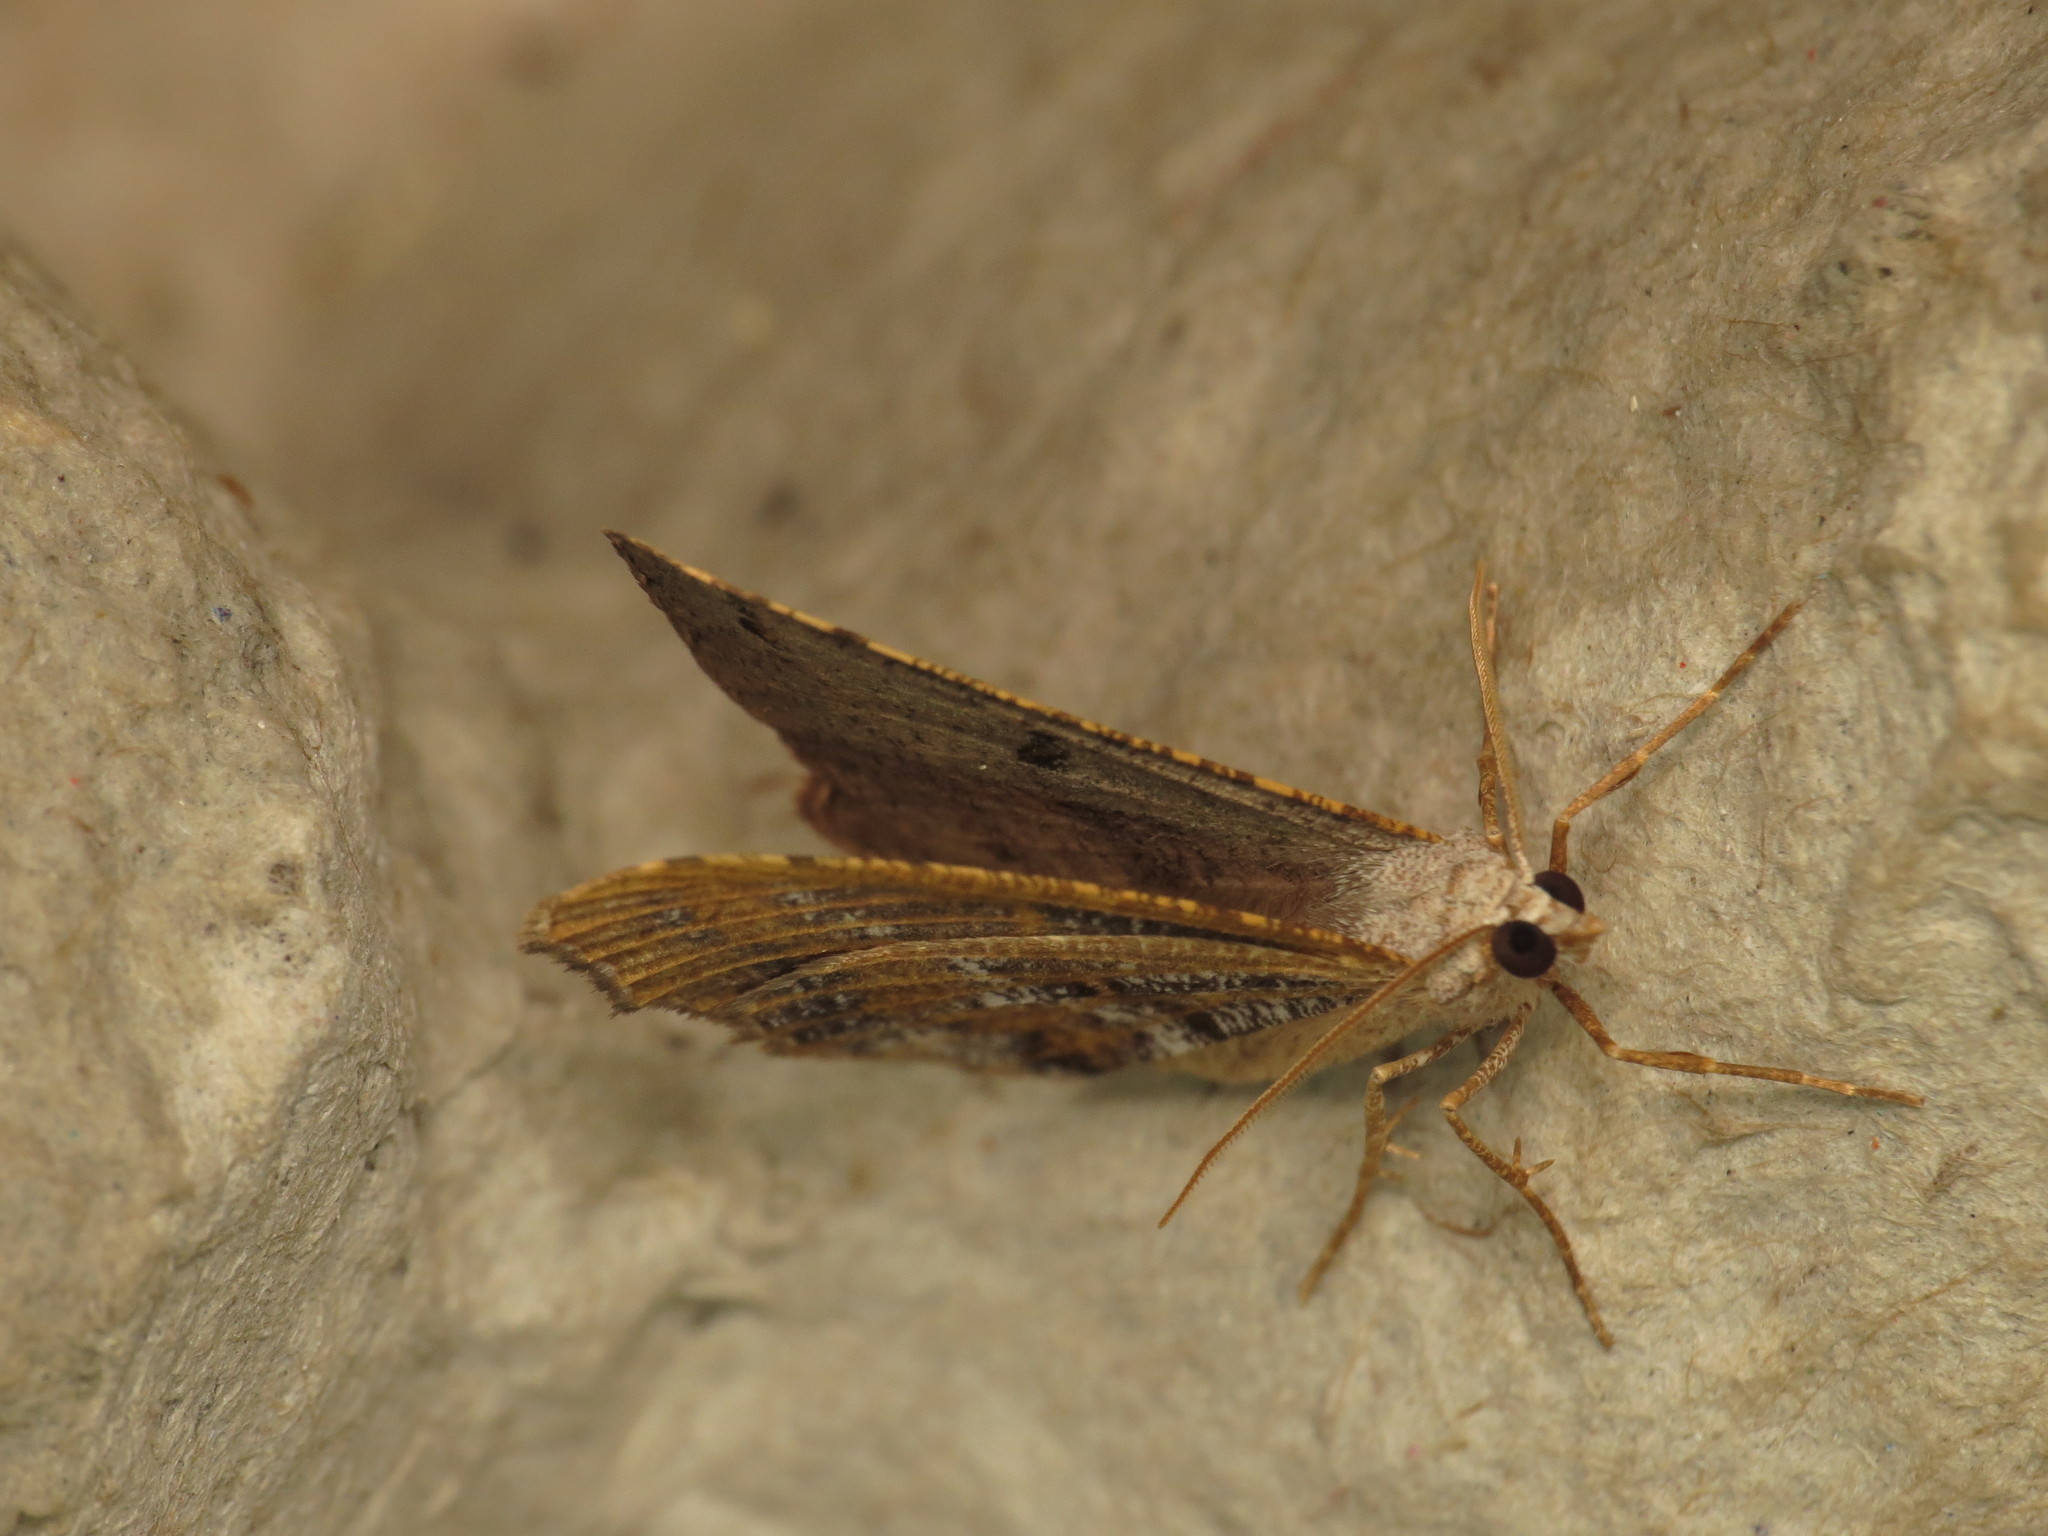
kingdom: Animalia
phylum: Arthropoda
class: Insecta
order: Lepidoptera
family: Geometridae
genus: Dissomorphia
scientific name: Dissomorphia australiaria
